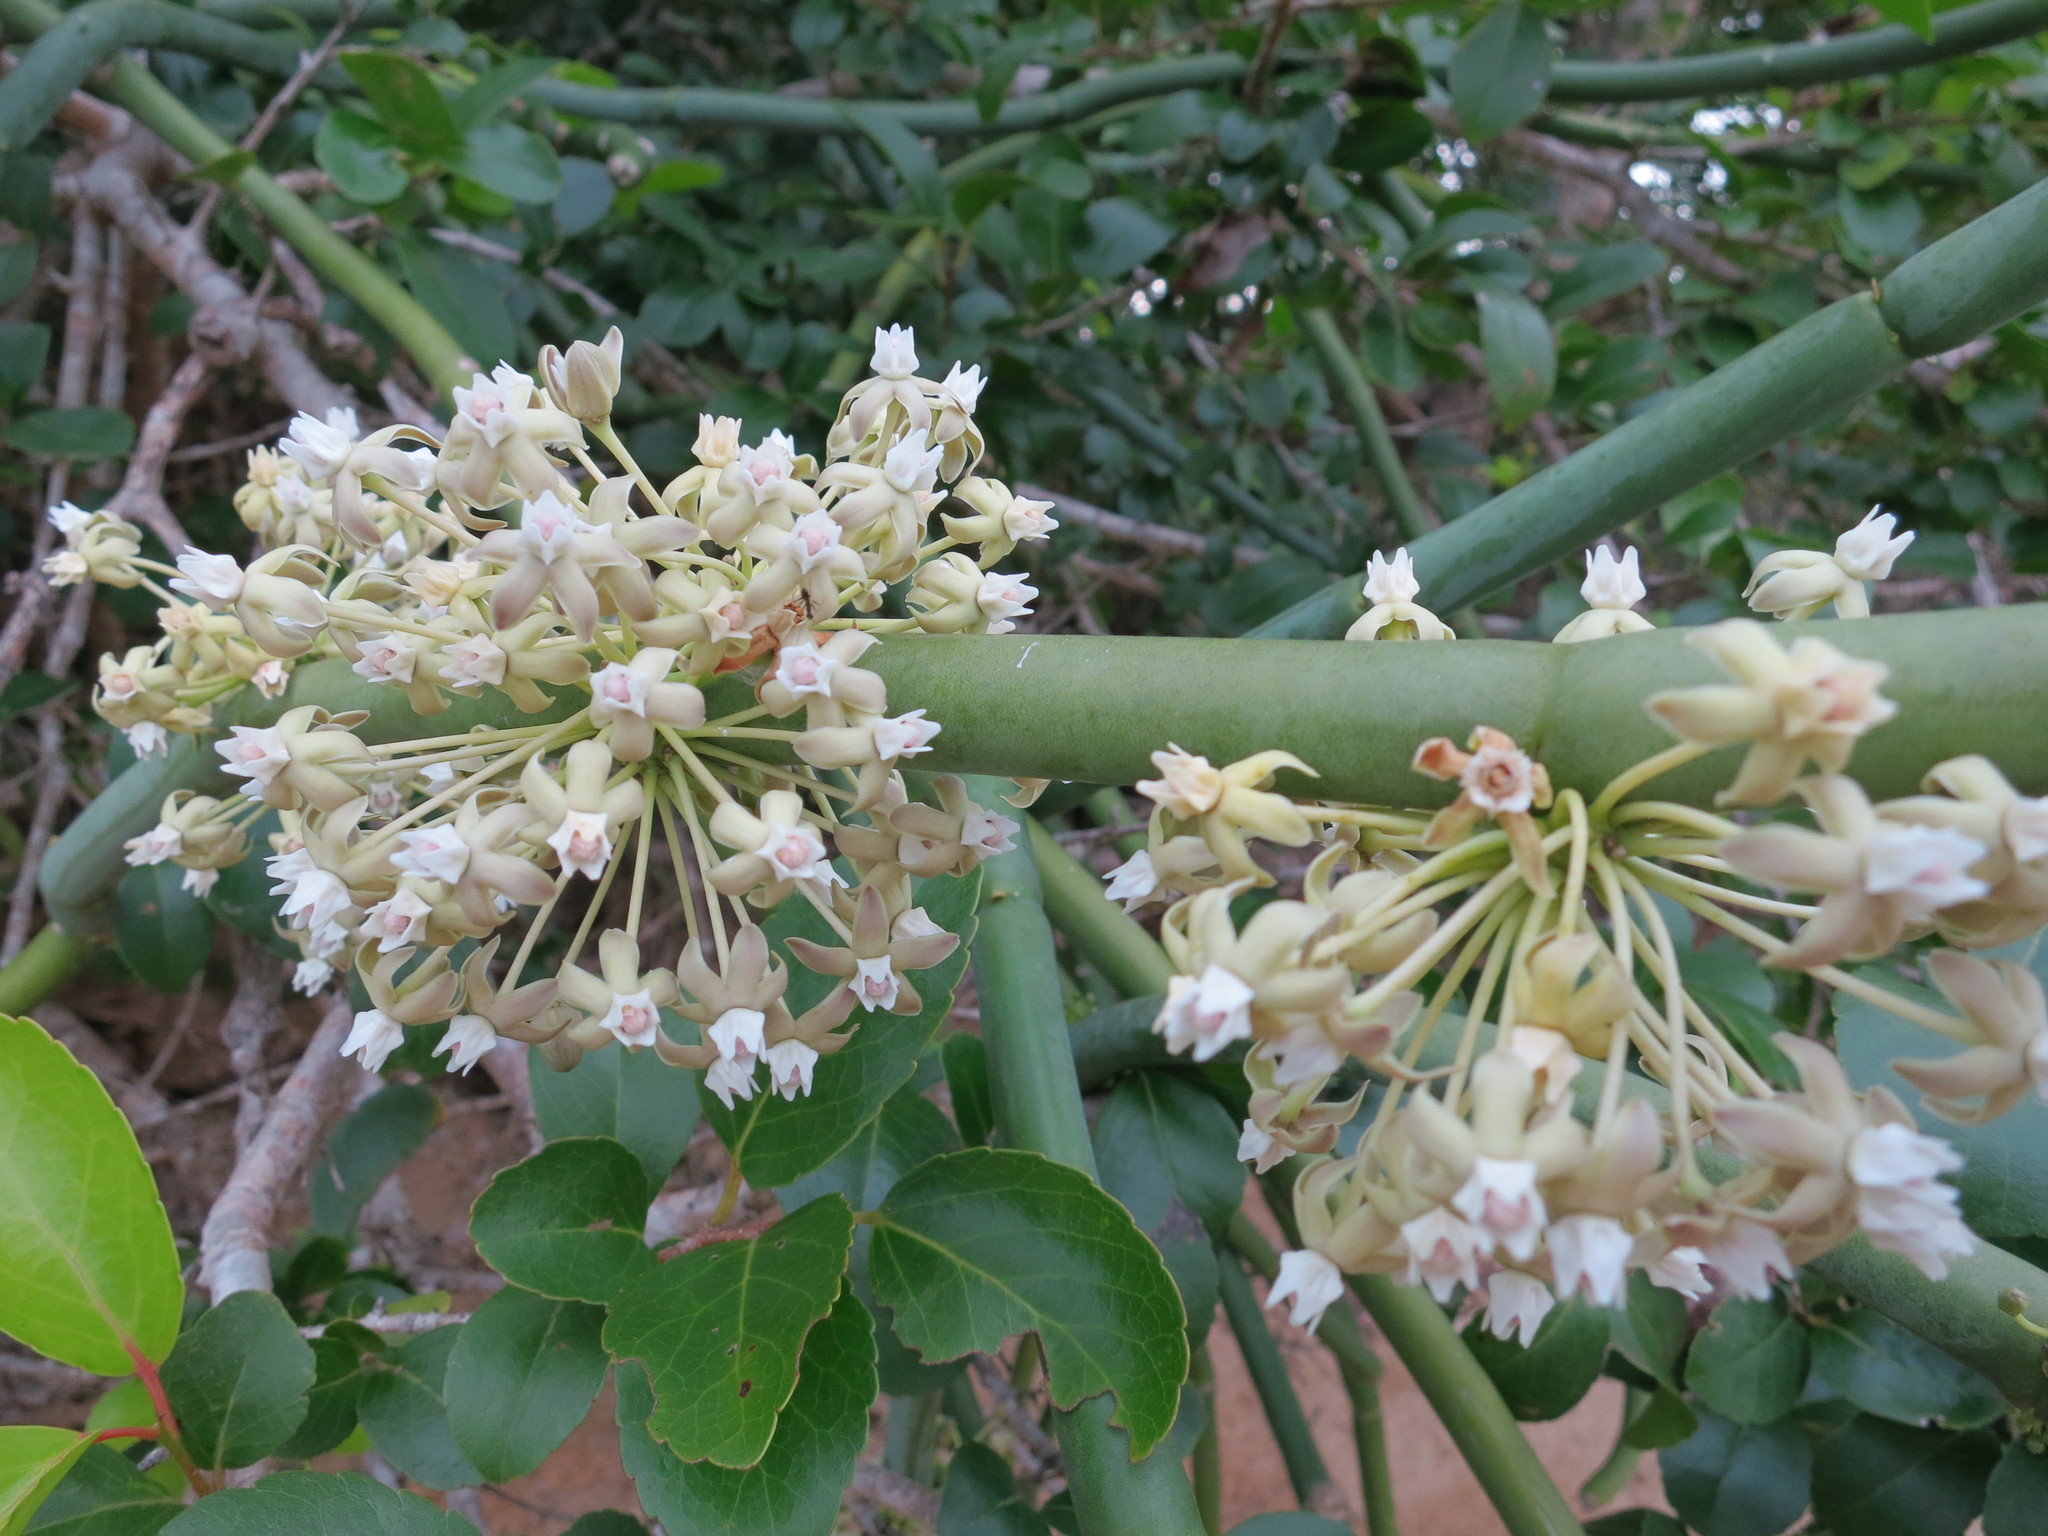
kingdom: Plantae
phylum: Tracheophyta
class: Magnoliopsida
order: Gentianales
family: Apocynaceae
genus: Cynanchum
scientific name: Cynanchum floriferum
